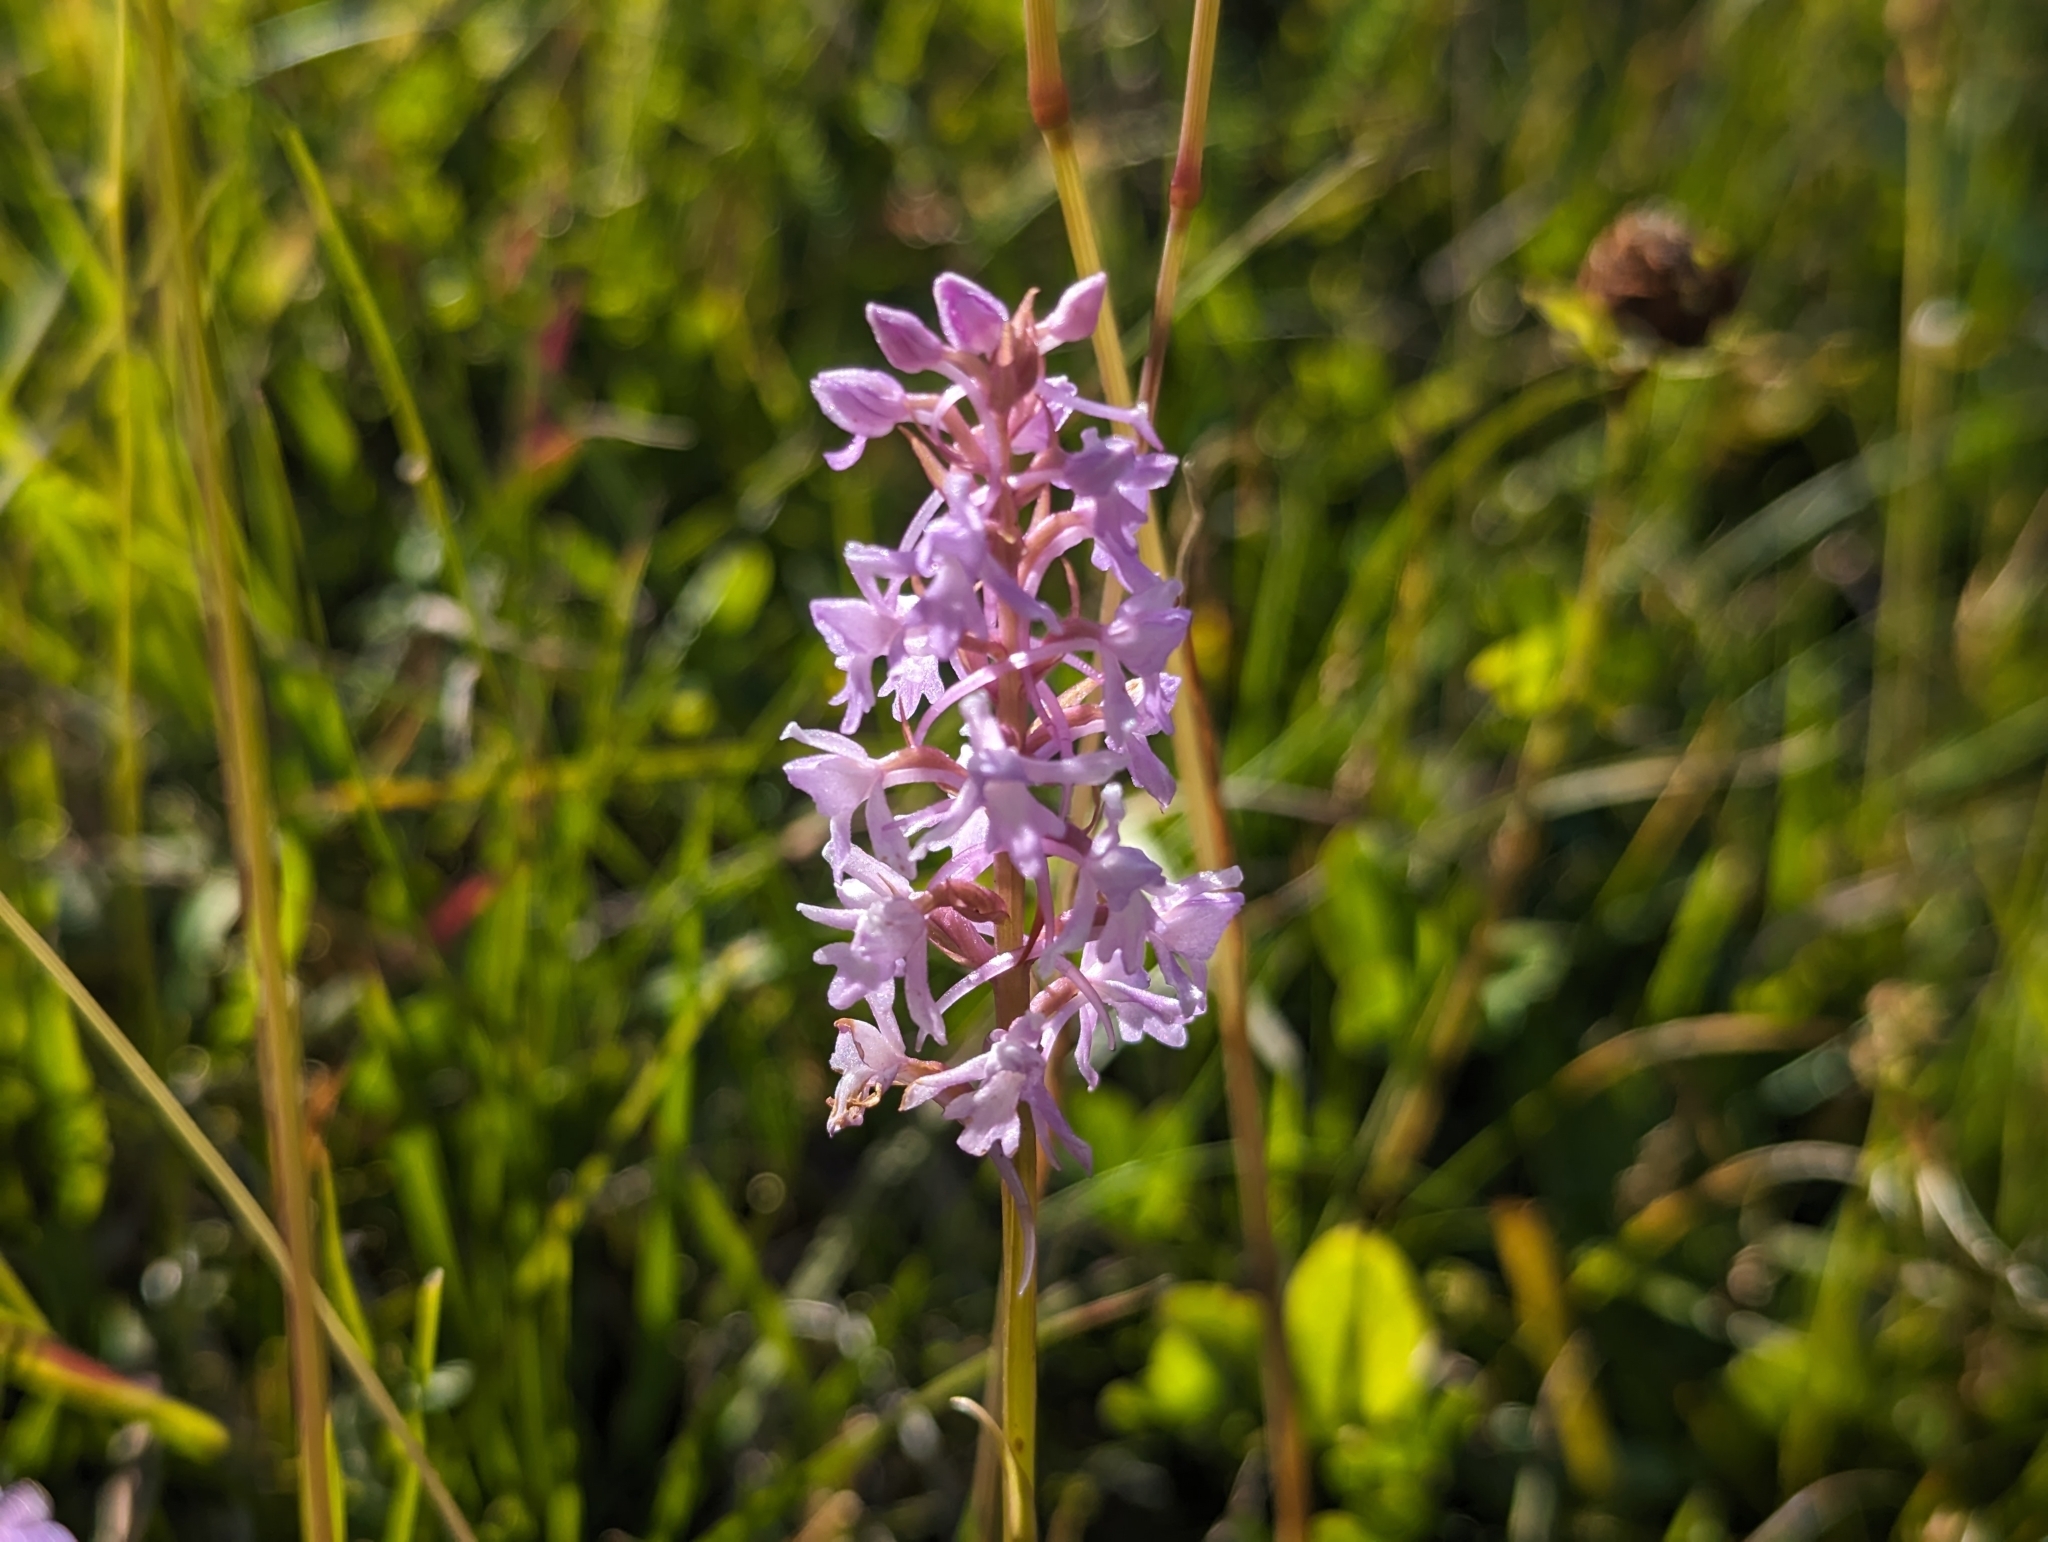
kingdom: Plantae
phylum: Tracheophyta
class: Liliopsida
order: Asparagales
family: Orchidaceae
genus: Gymnadenia
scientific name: Gymnadenia conopsea
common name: Fragrant orchid
